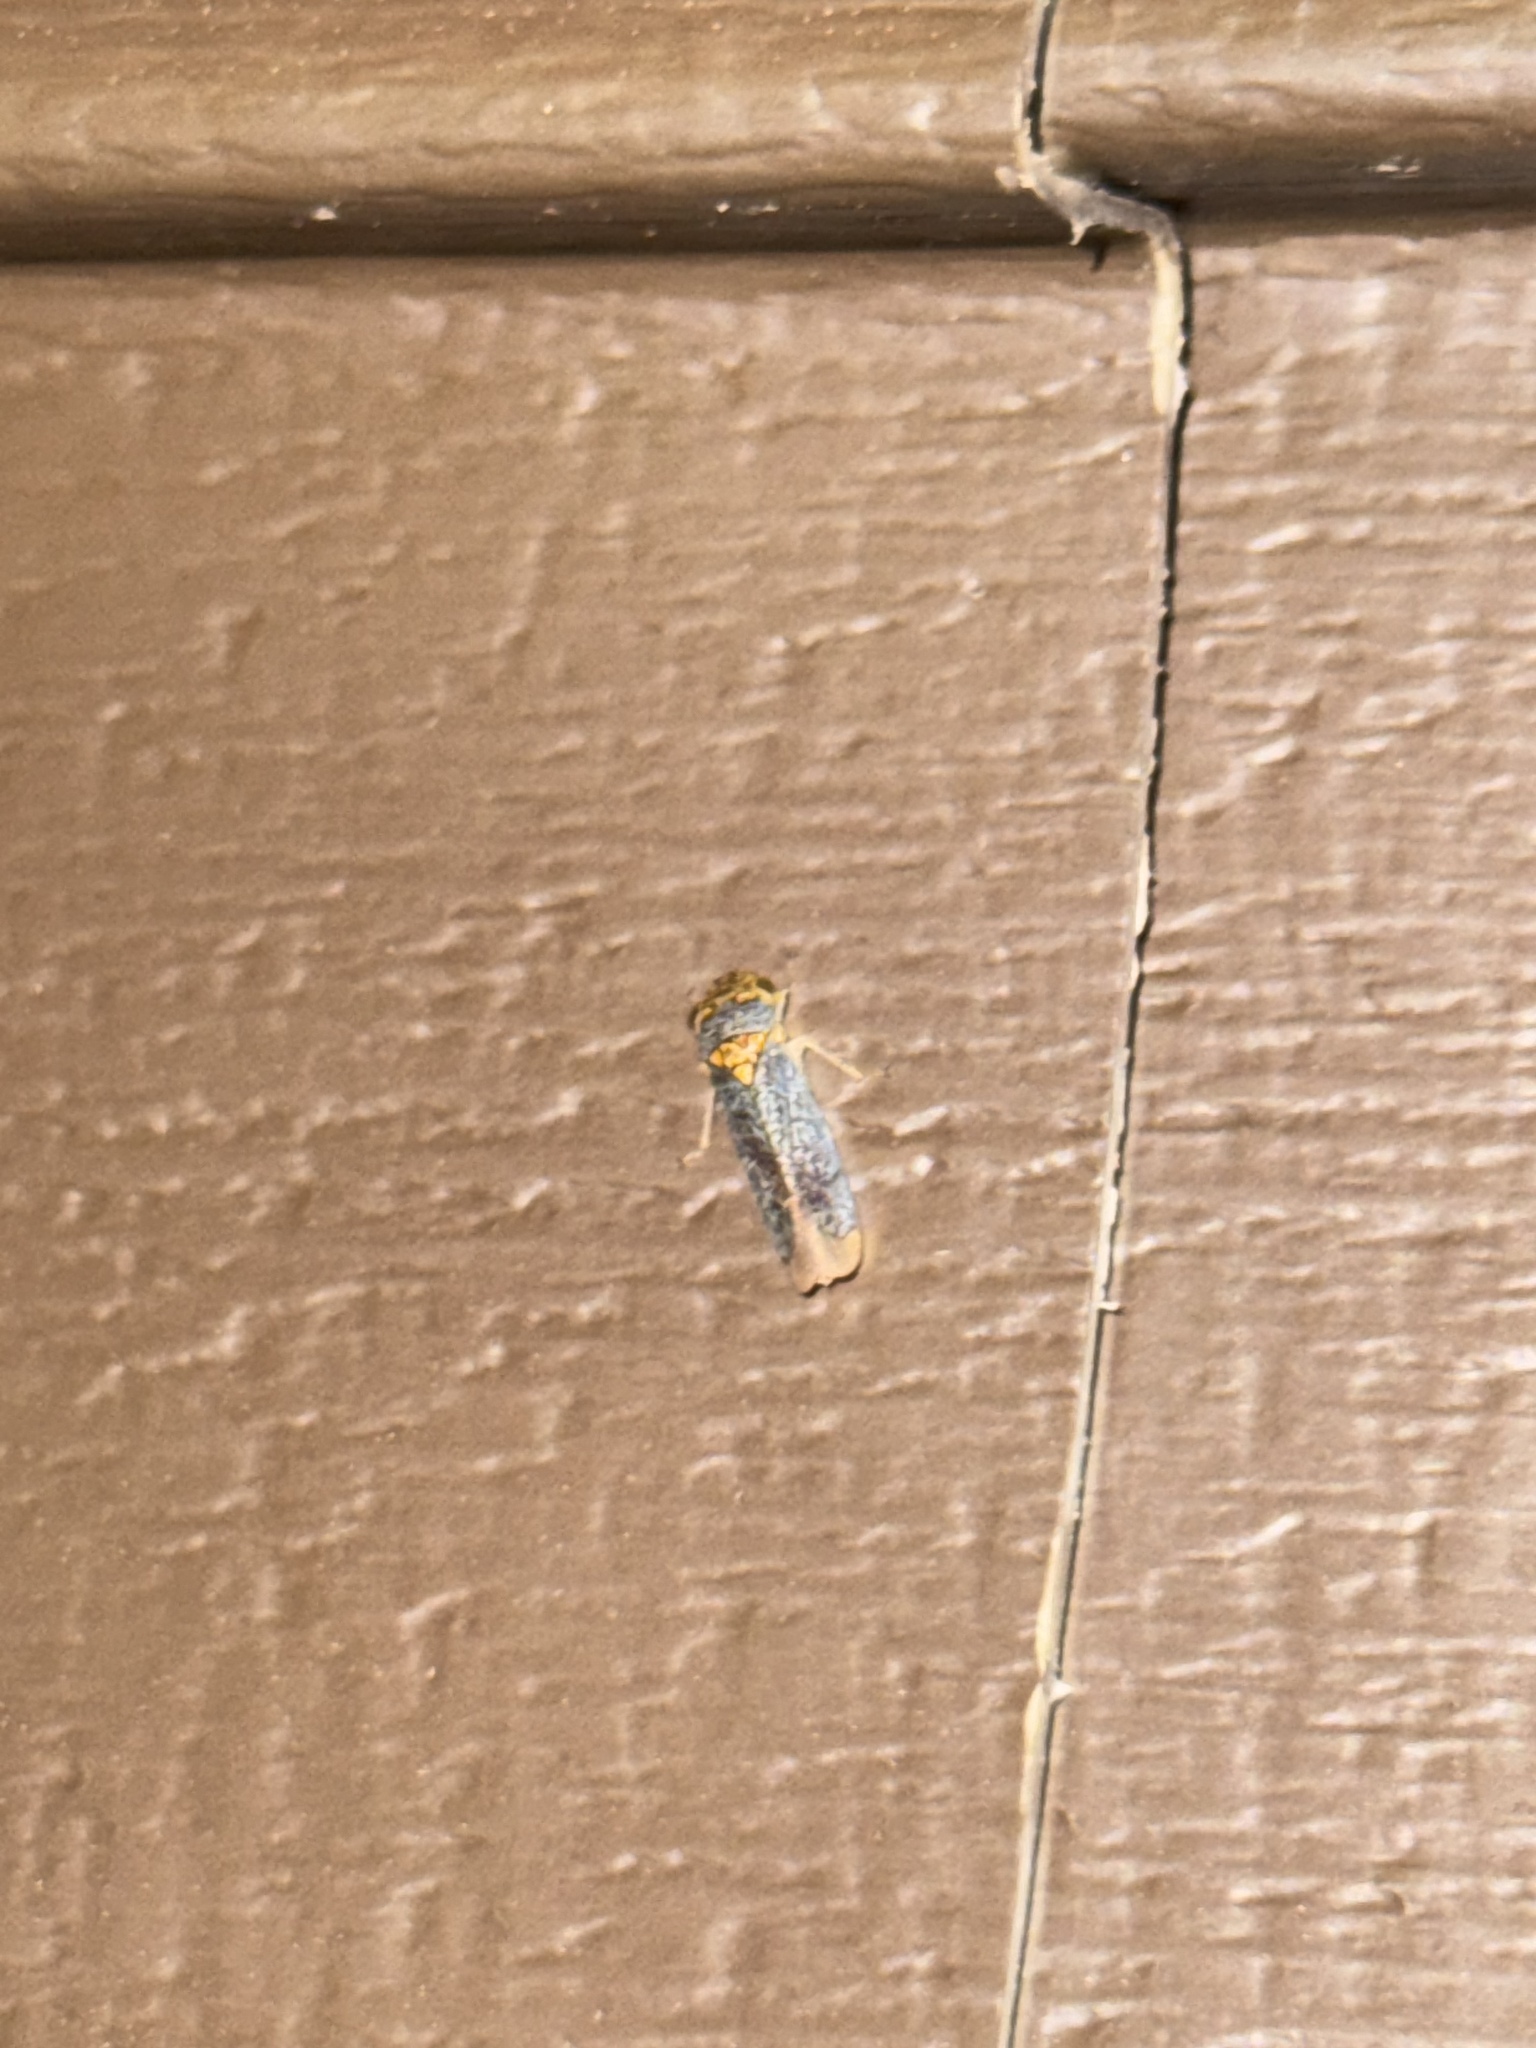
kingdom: Animalia
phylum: Arthropoda
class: Insecta
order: Hemiptera
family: Cicadellidae
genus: Oncometopia
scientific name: Oncometopia orbona
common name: Broad-headed sharpshooter
